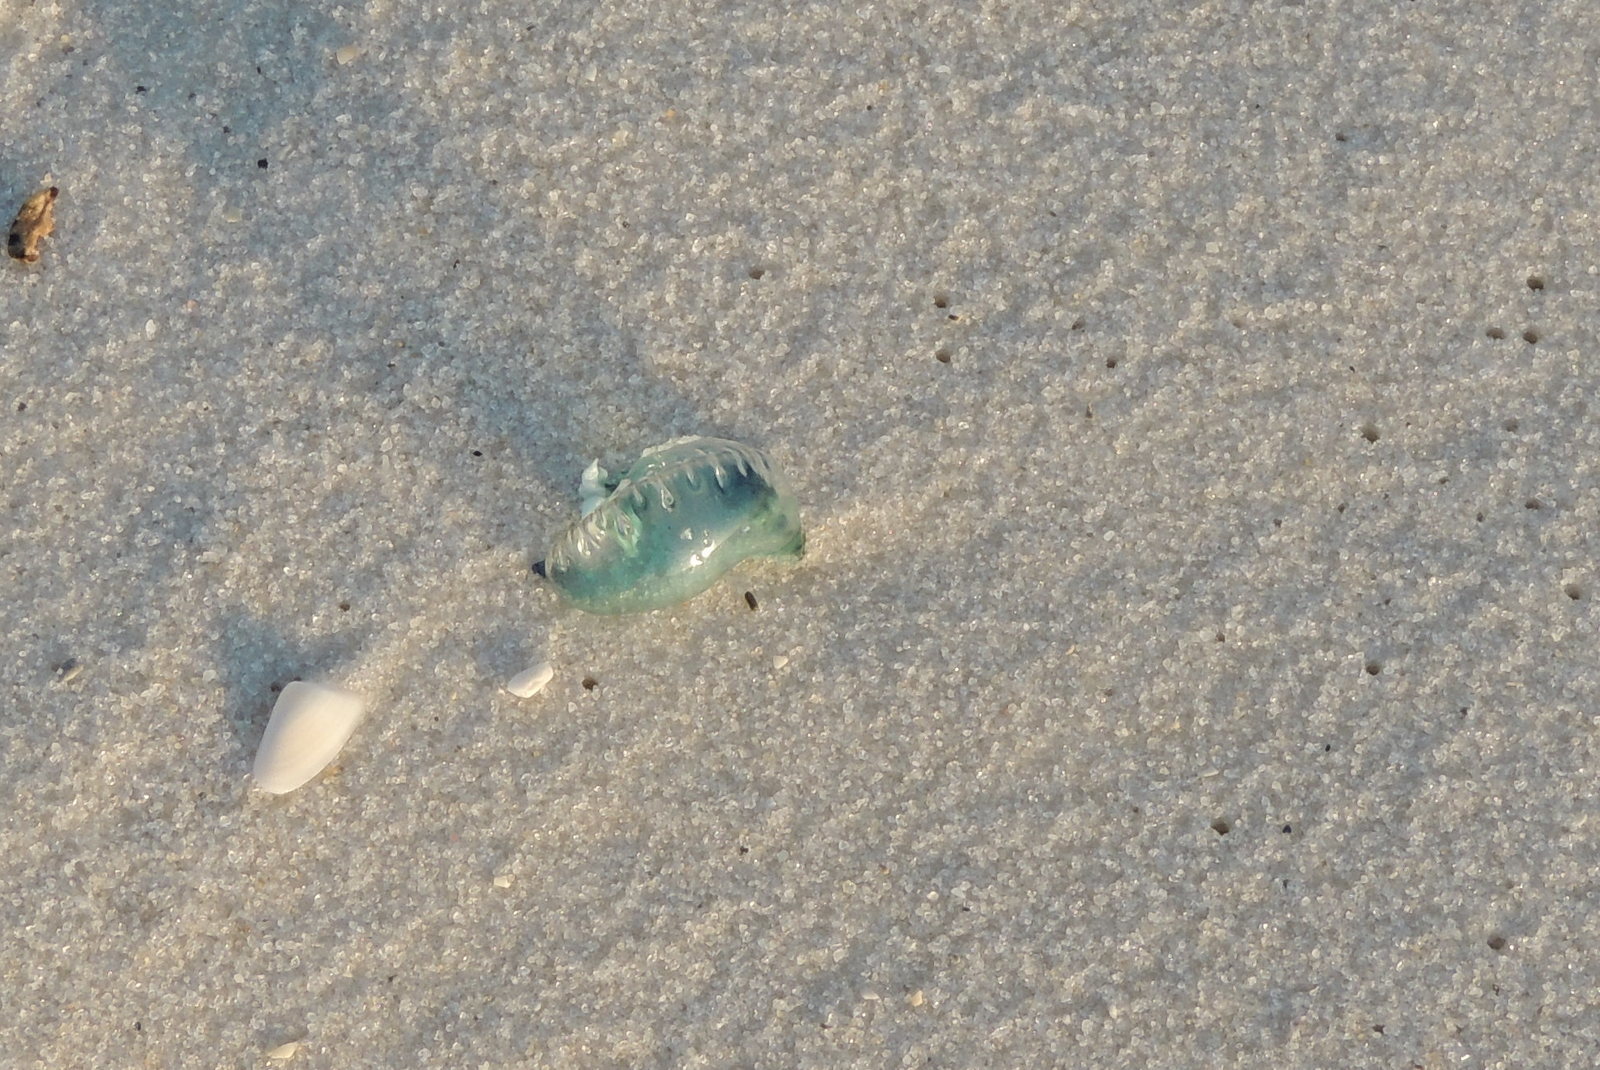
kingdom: Animalia
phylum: Cnidaria
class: Hydrozoa
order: Siphonophorae
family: Physaliidae
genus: Physalia
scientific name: Physalia physalis
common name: Portuguese man-of-war
